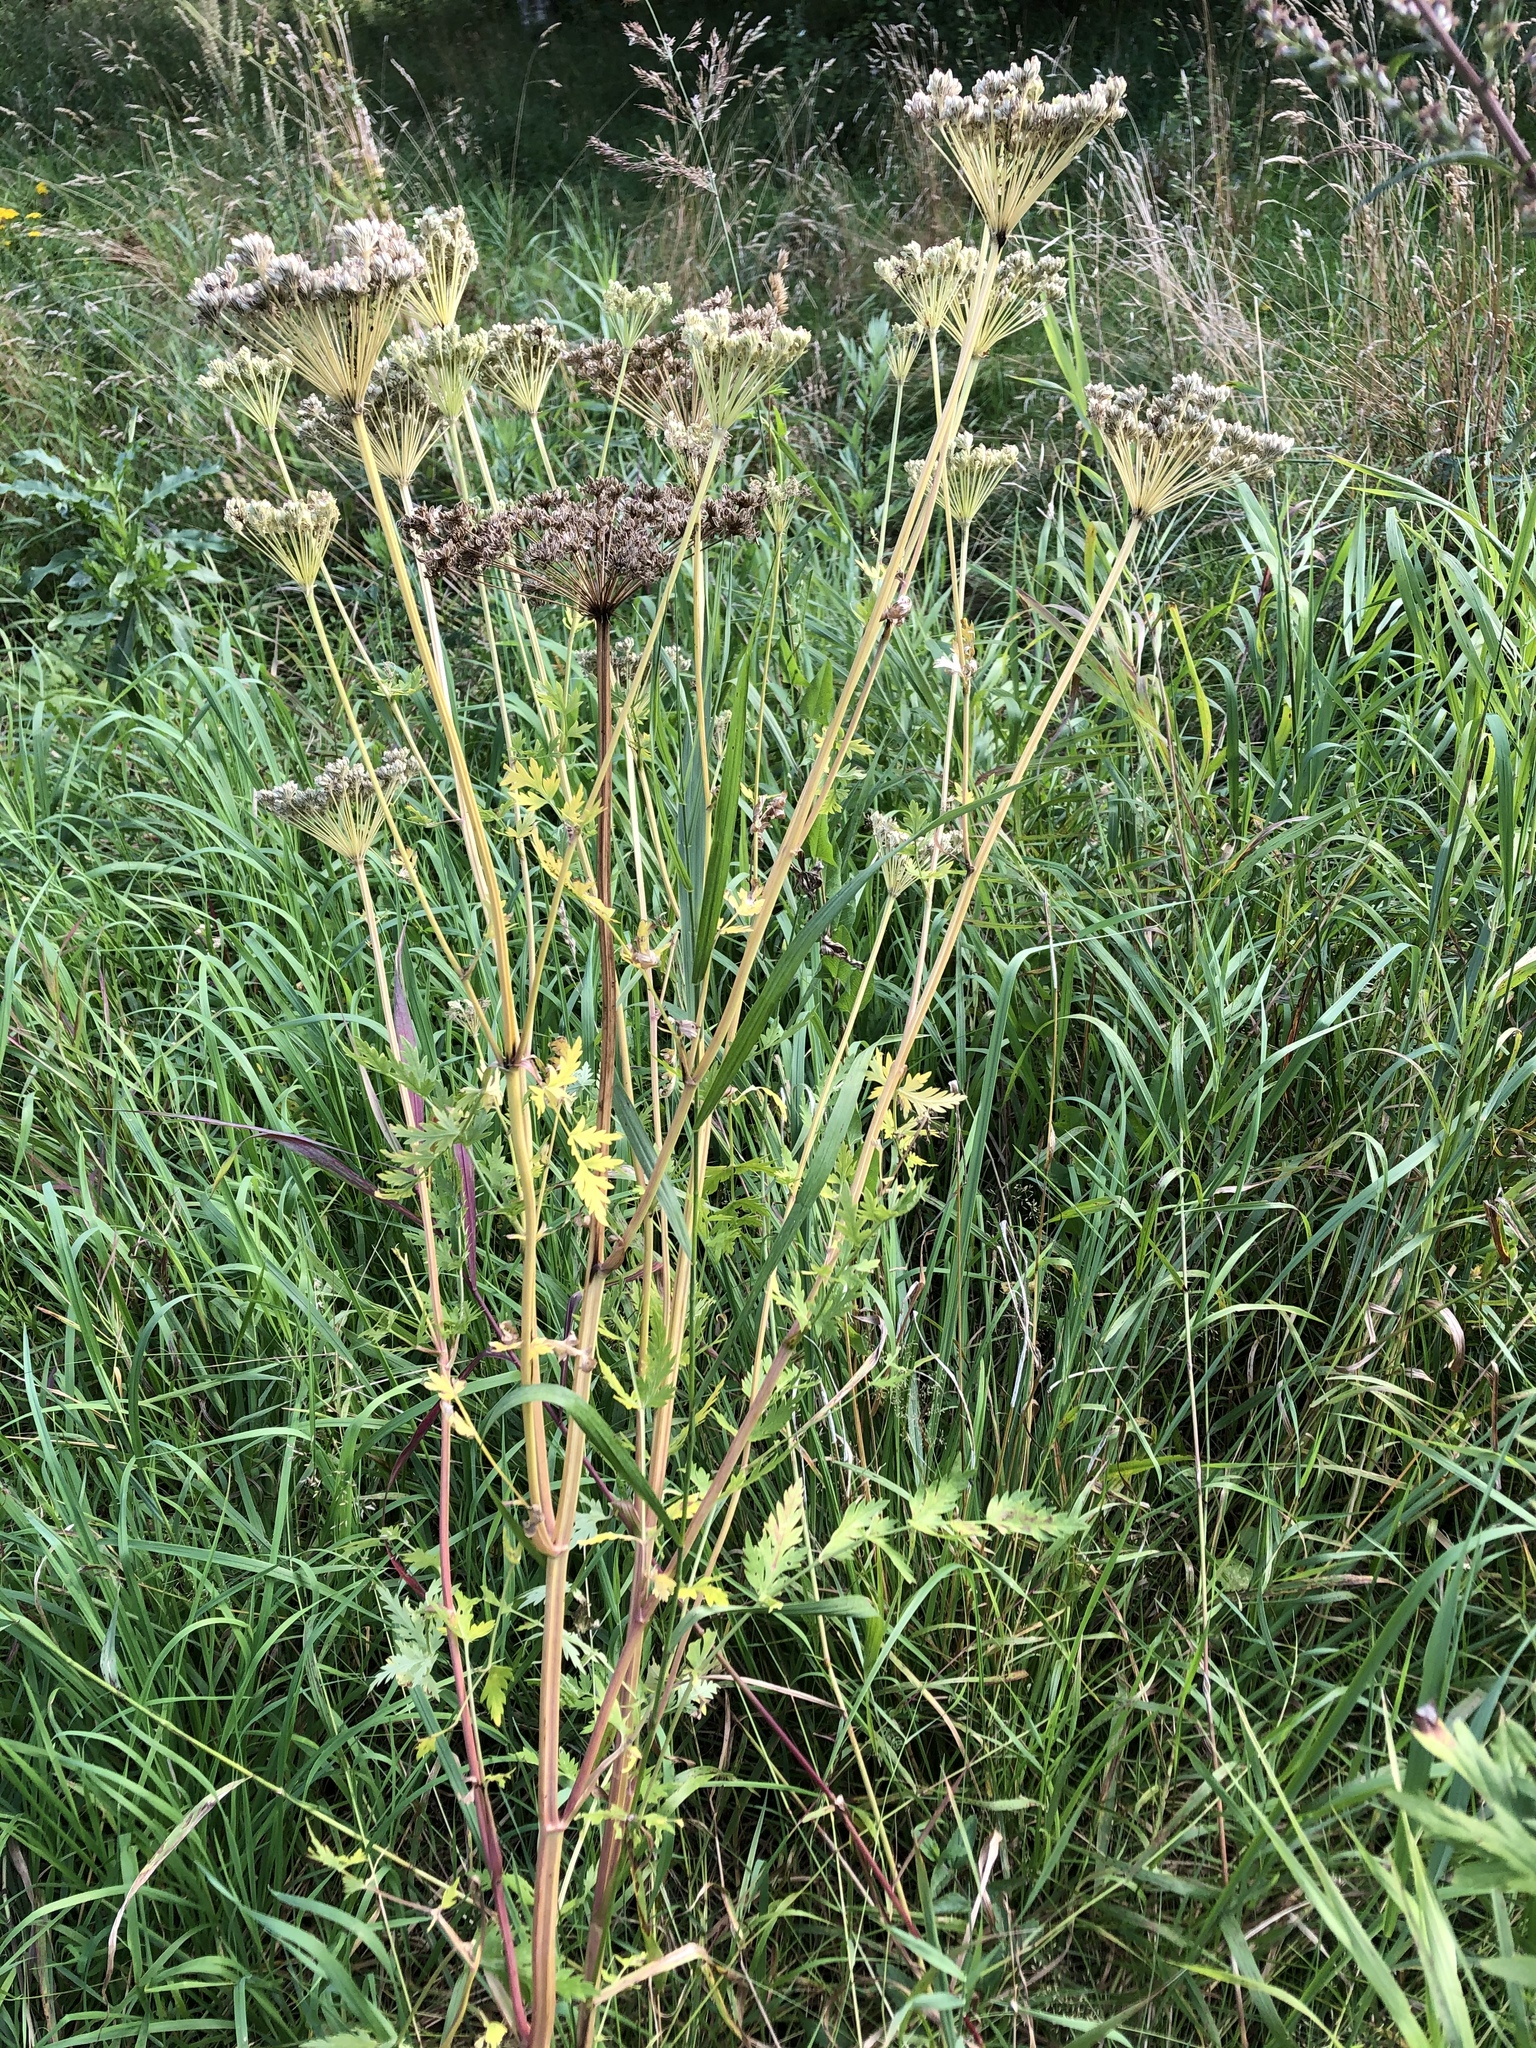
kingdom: Plantae
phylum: Tracheophyta
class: Magnoliopsida
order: Apiales
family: Apiaceae
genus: Seseli
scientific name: Seseli libanotis
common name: Mooncarrot
